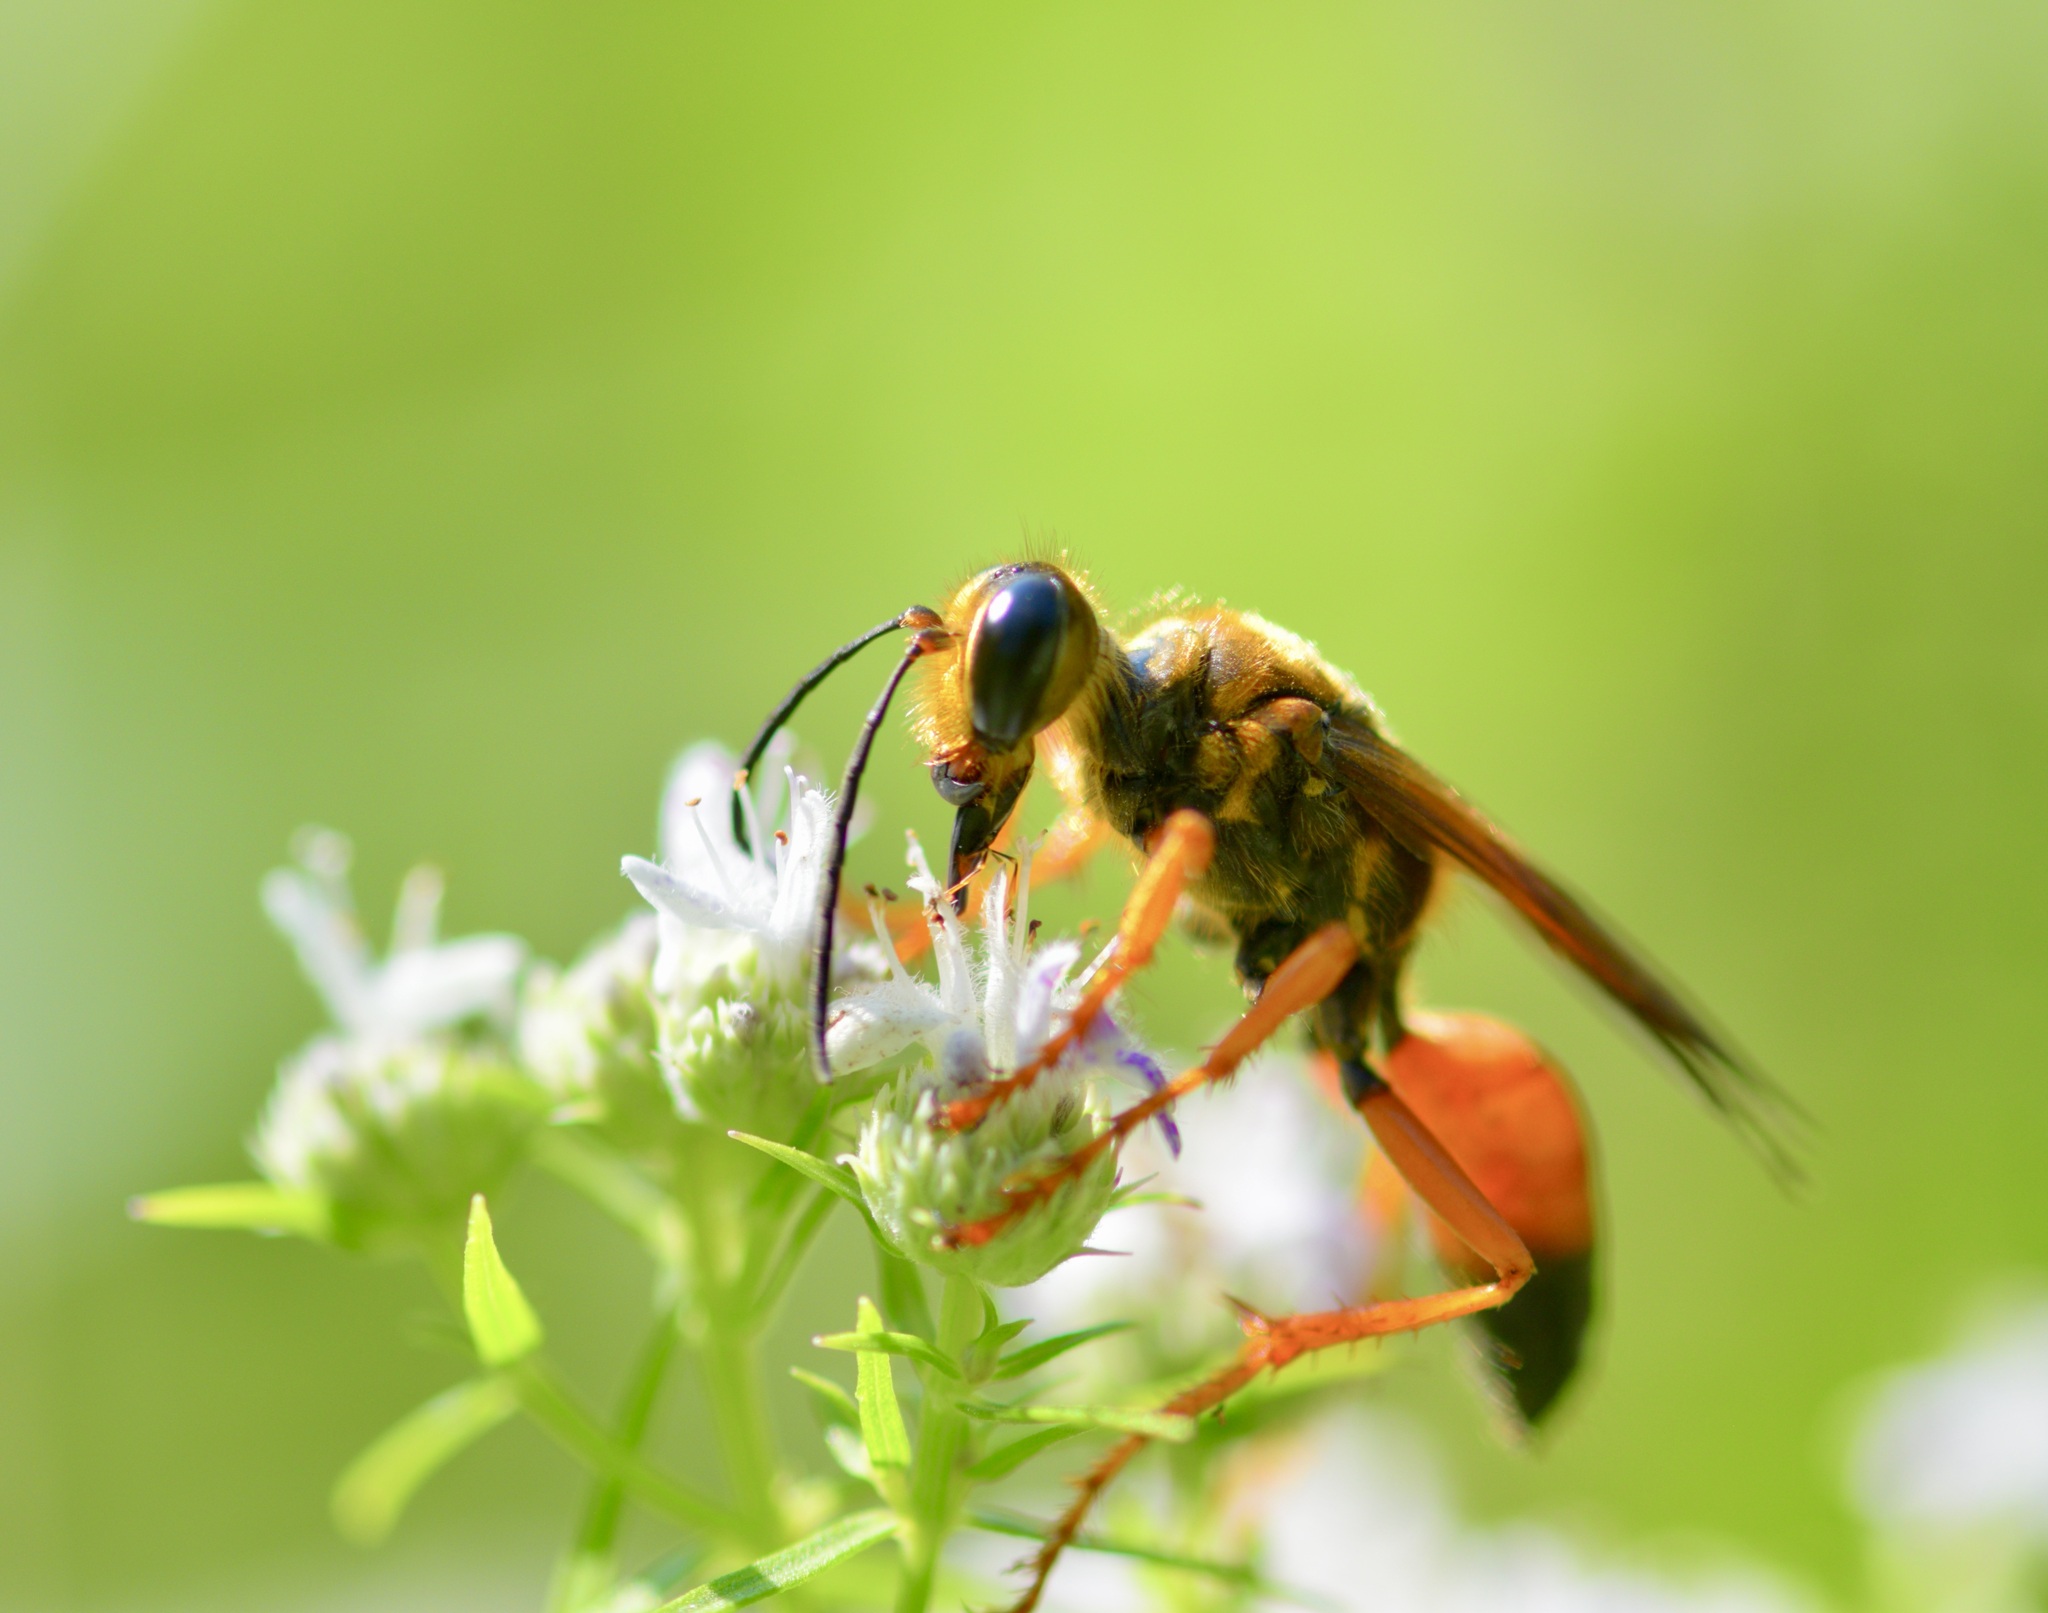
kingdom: Animalia
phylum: Arthropoda
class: Insecta
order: Hymenoptera
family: Sphecidae
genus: Sphex
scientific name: Sphex ichneumoneus
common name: Great golden digger wasp
